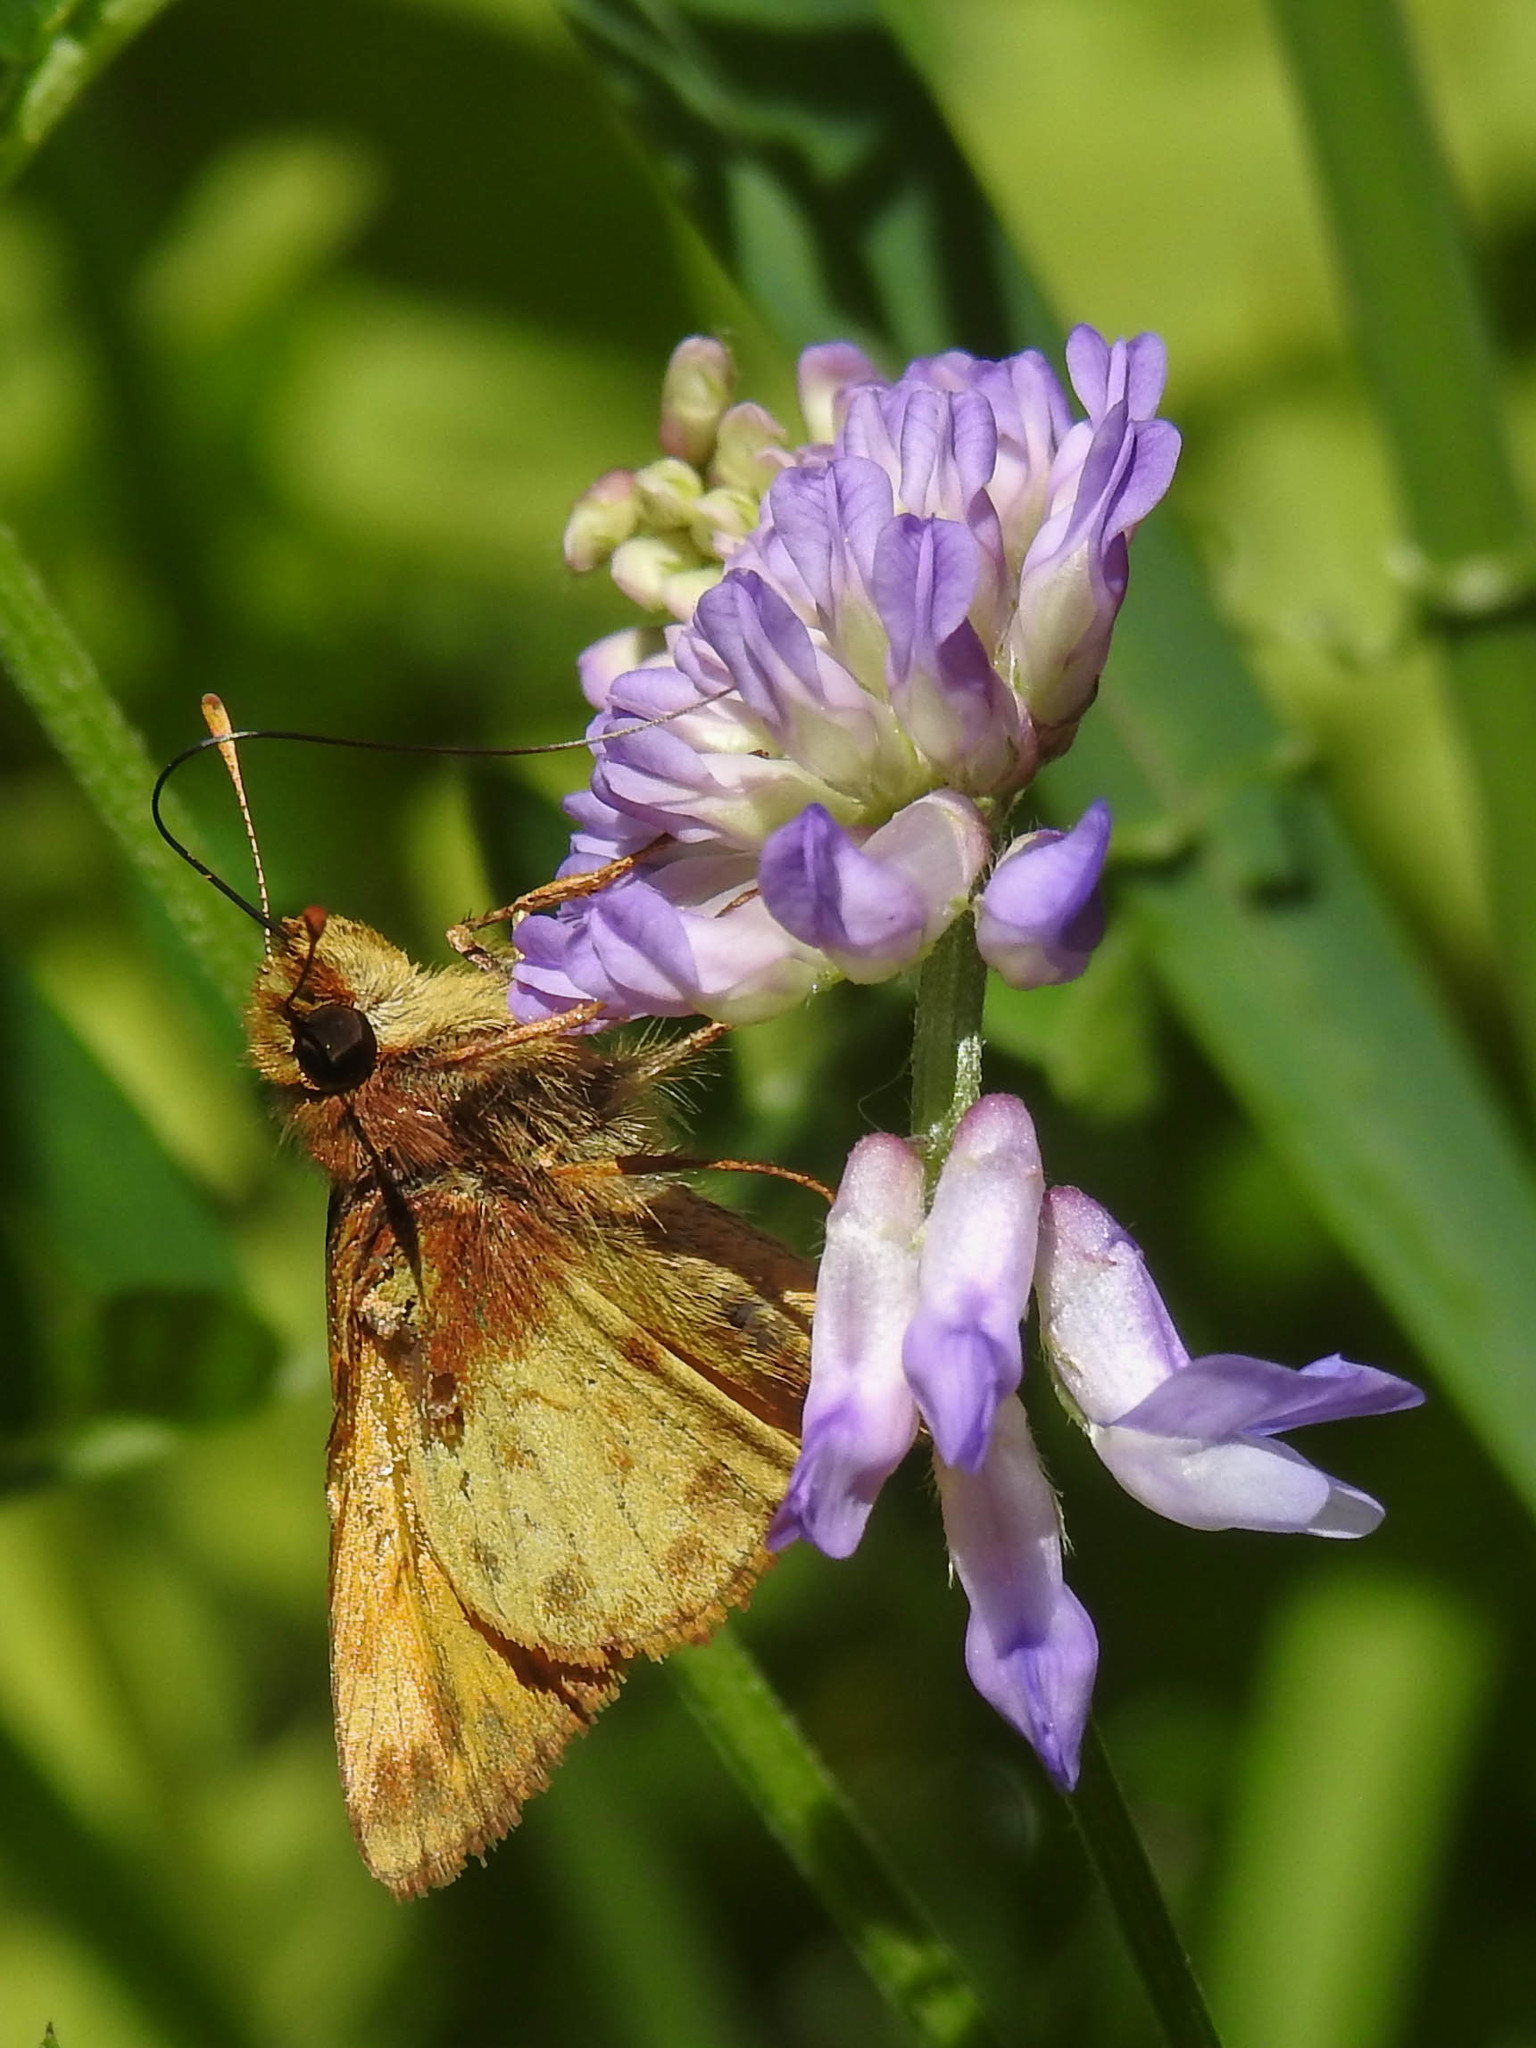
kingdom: Animalia
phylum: Arthropoda
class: Insecta
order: Lepidoptera
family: Hesperiidae
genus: Lon
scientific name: Lon zabulon
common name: Zabulon skipper
